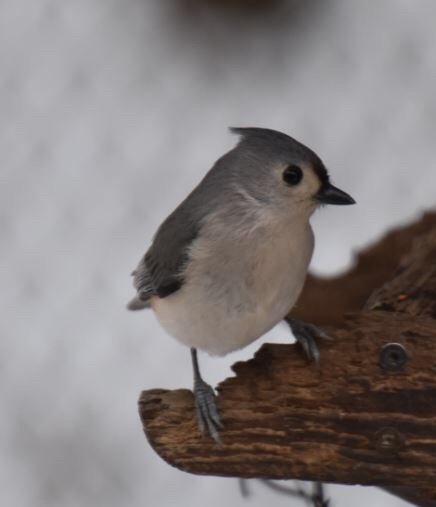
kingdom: Animalia
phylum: Chordata
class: Aves
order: Passeriformes
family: Paridae
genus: Baeolophus
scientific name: Baeolophus bicolor
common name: Tufted titmouse
